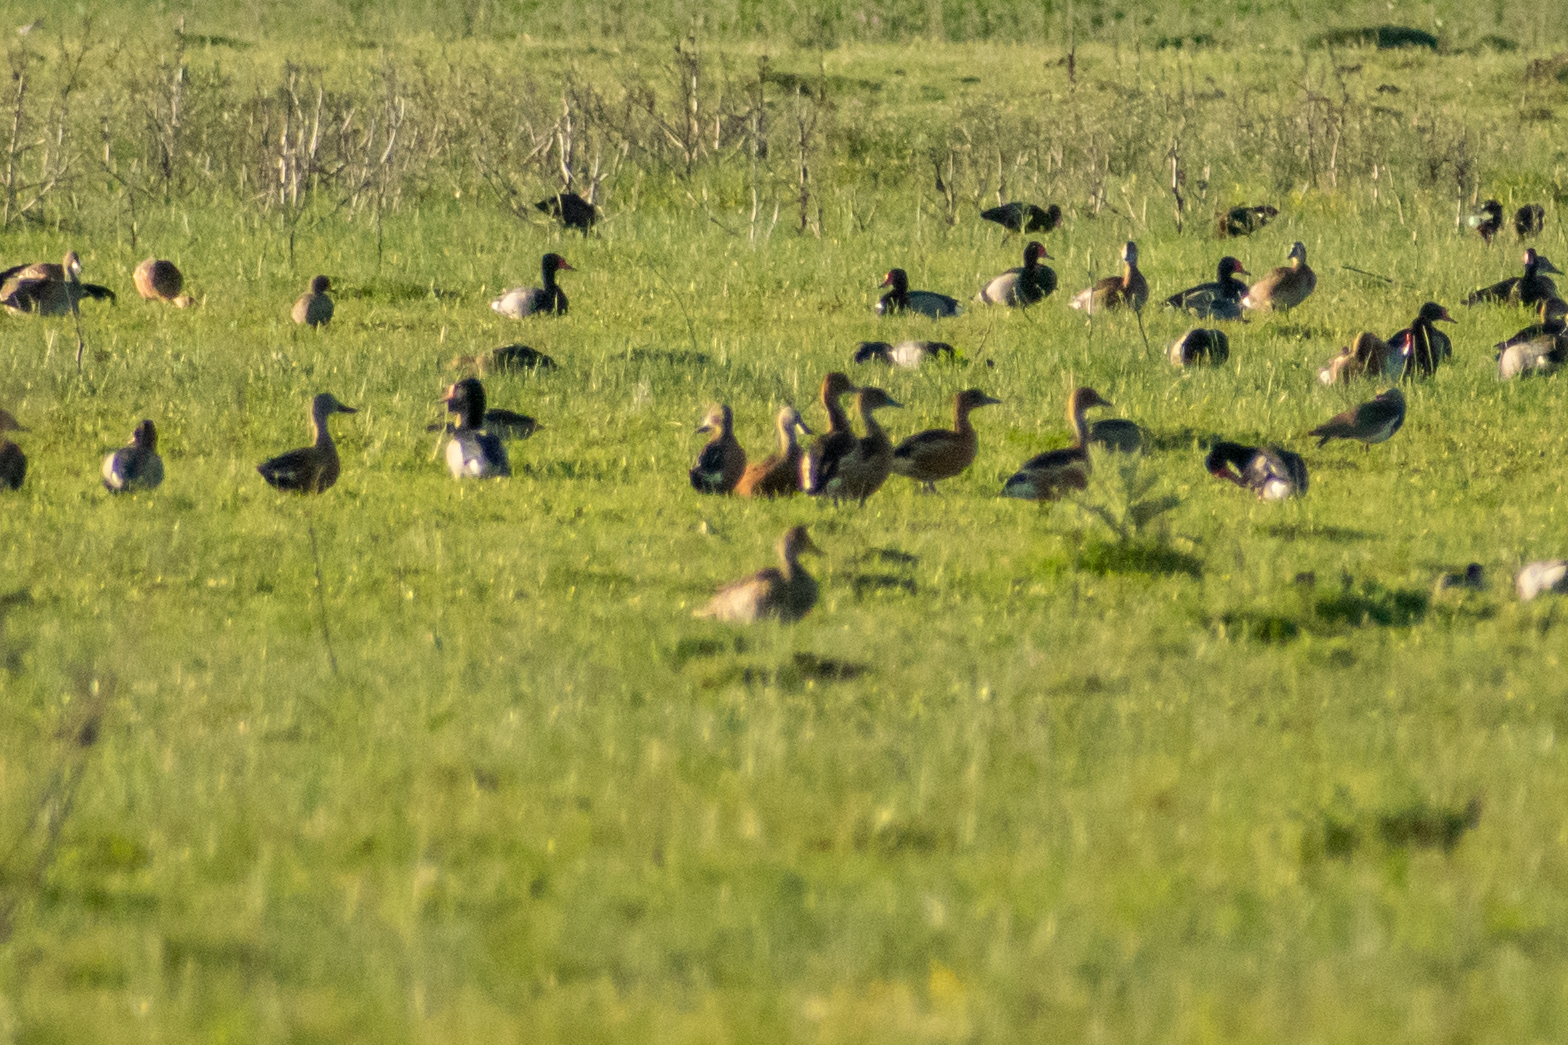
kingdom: Animalia
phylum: Chordata
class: Aves
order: Anseriformes
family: Anatidae
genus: Spatula
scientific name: Spatula platalea
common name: Red shoveler
